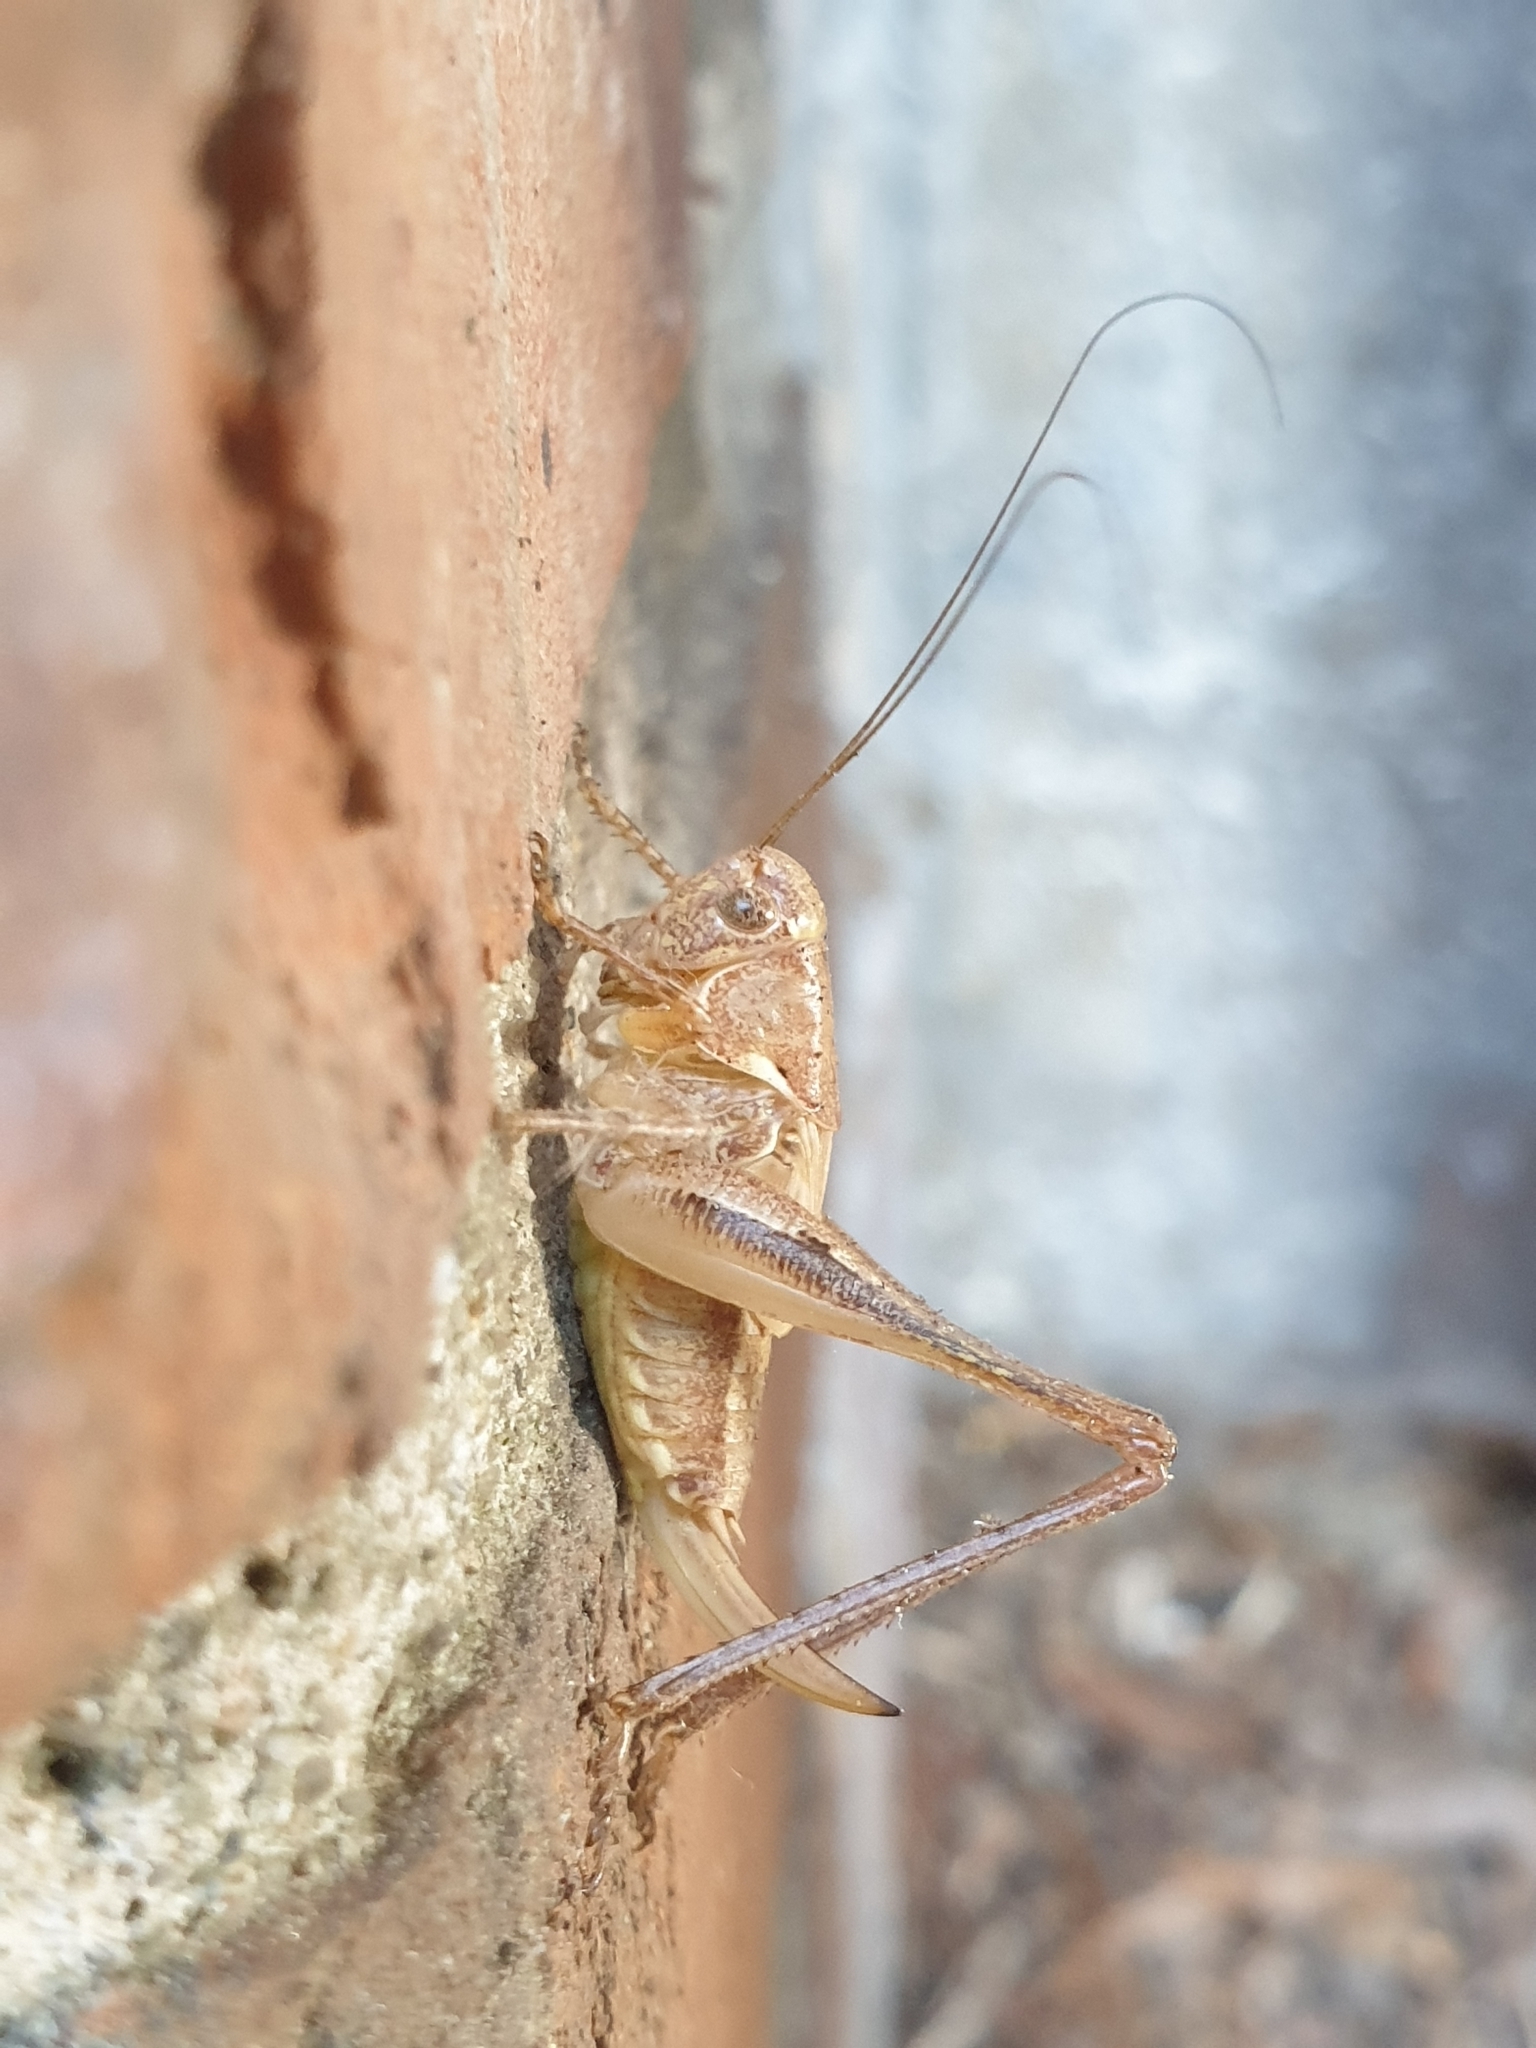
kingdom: Animalia
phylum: Arthropoda
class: Insecta
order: Orthoptera
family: Tettigoniidae
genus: Platycleis
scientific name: Platycleis albopunctata
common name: Grey bush-cricket
